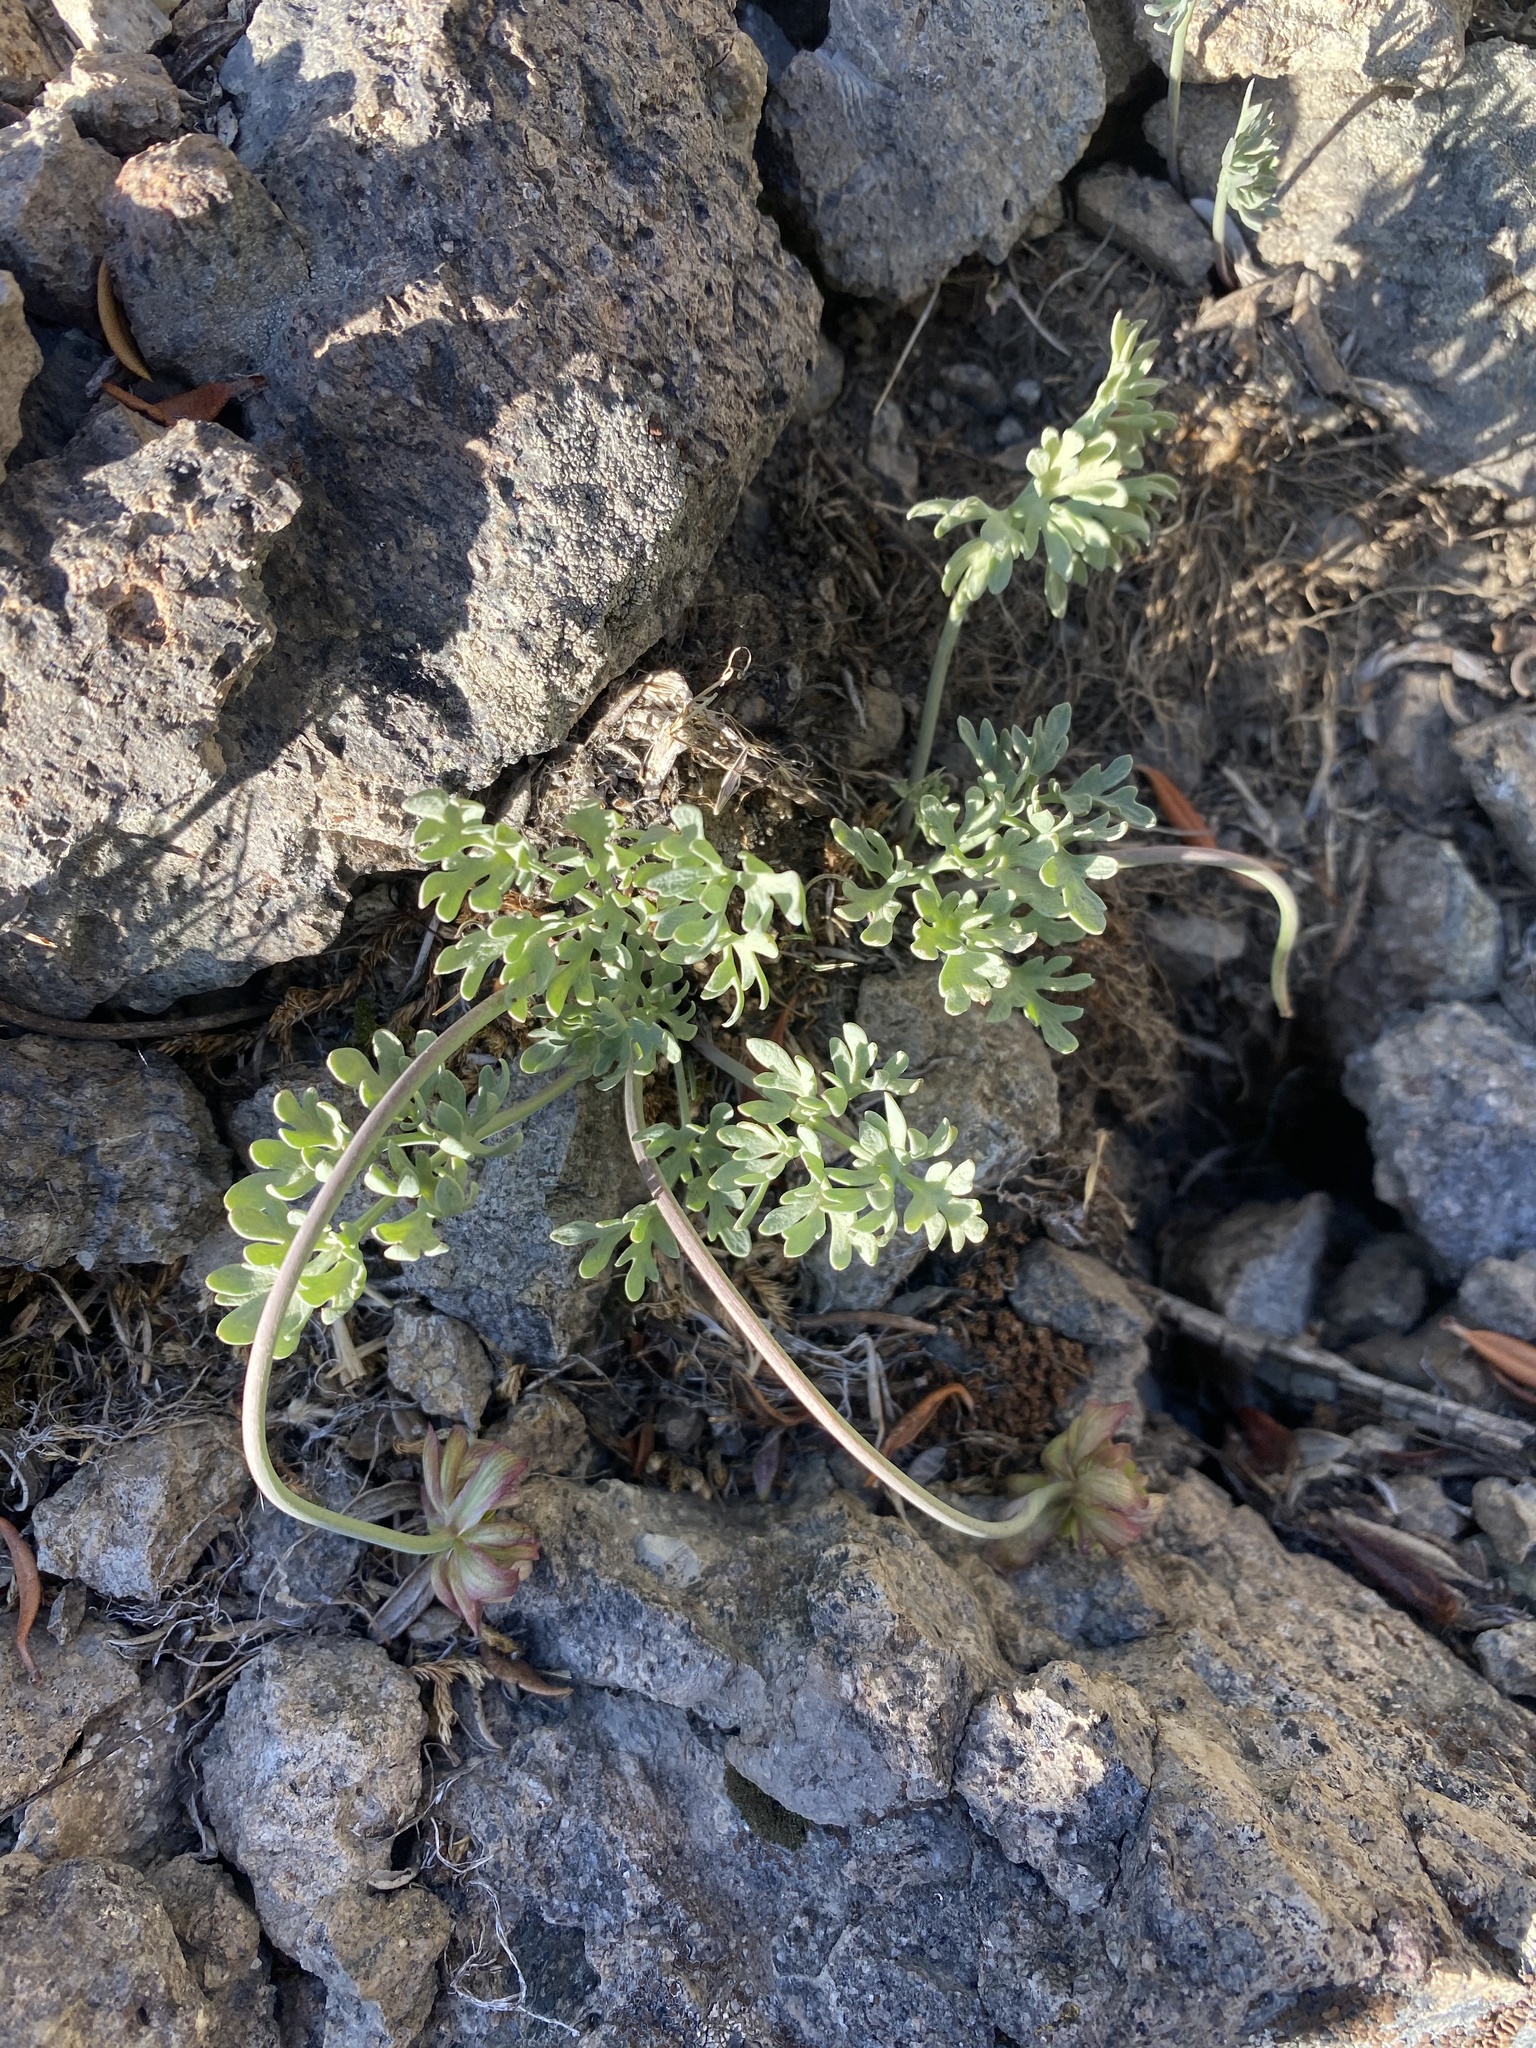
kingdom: Plantae
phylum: Tracheophyta
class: Magnoliopsida
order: Ranunculales
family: Ranunculaceae
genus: Beckwithia
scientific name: Beckwithia andersonii
